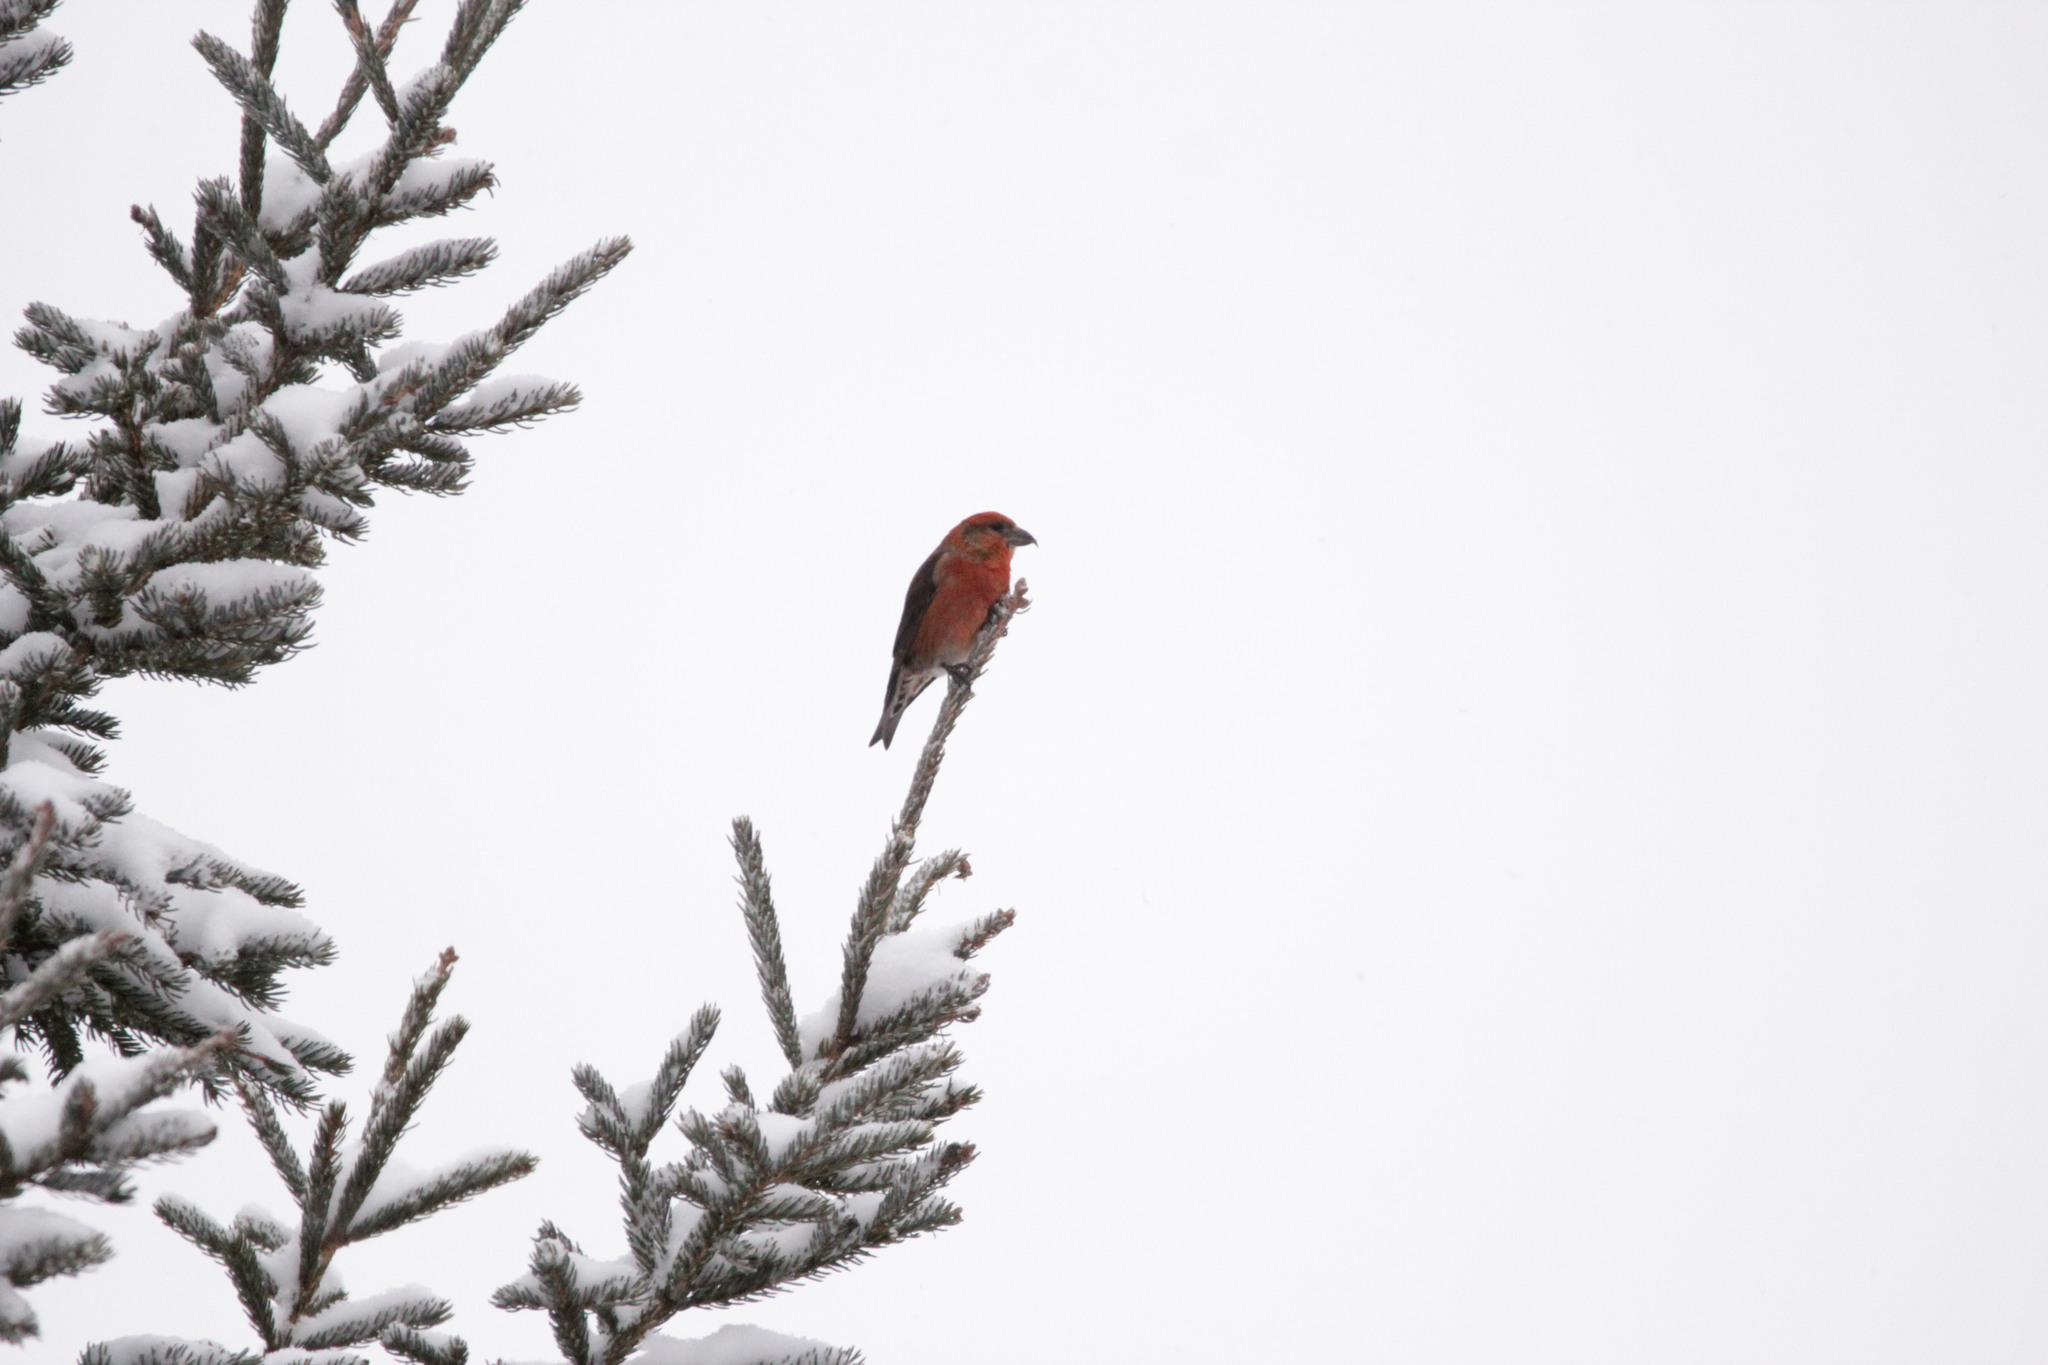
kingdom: Animalia
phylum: Chordata
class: Aves
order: Passeriformes
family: Fringillidae
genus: Loxia
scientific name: Loxia curvirostra
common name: Red crossbill
